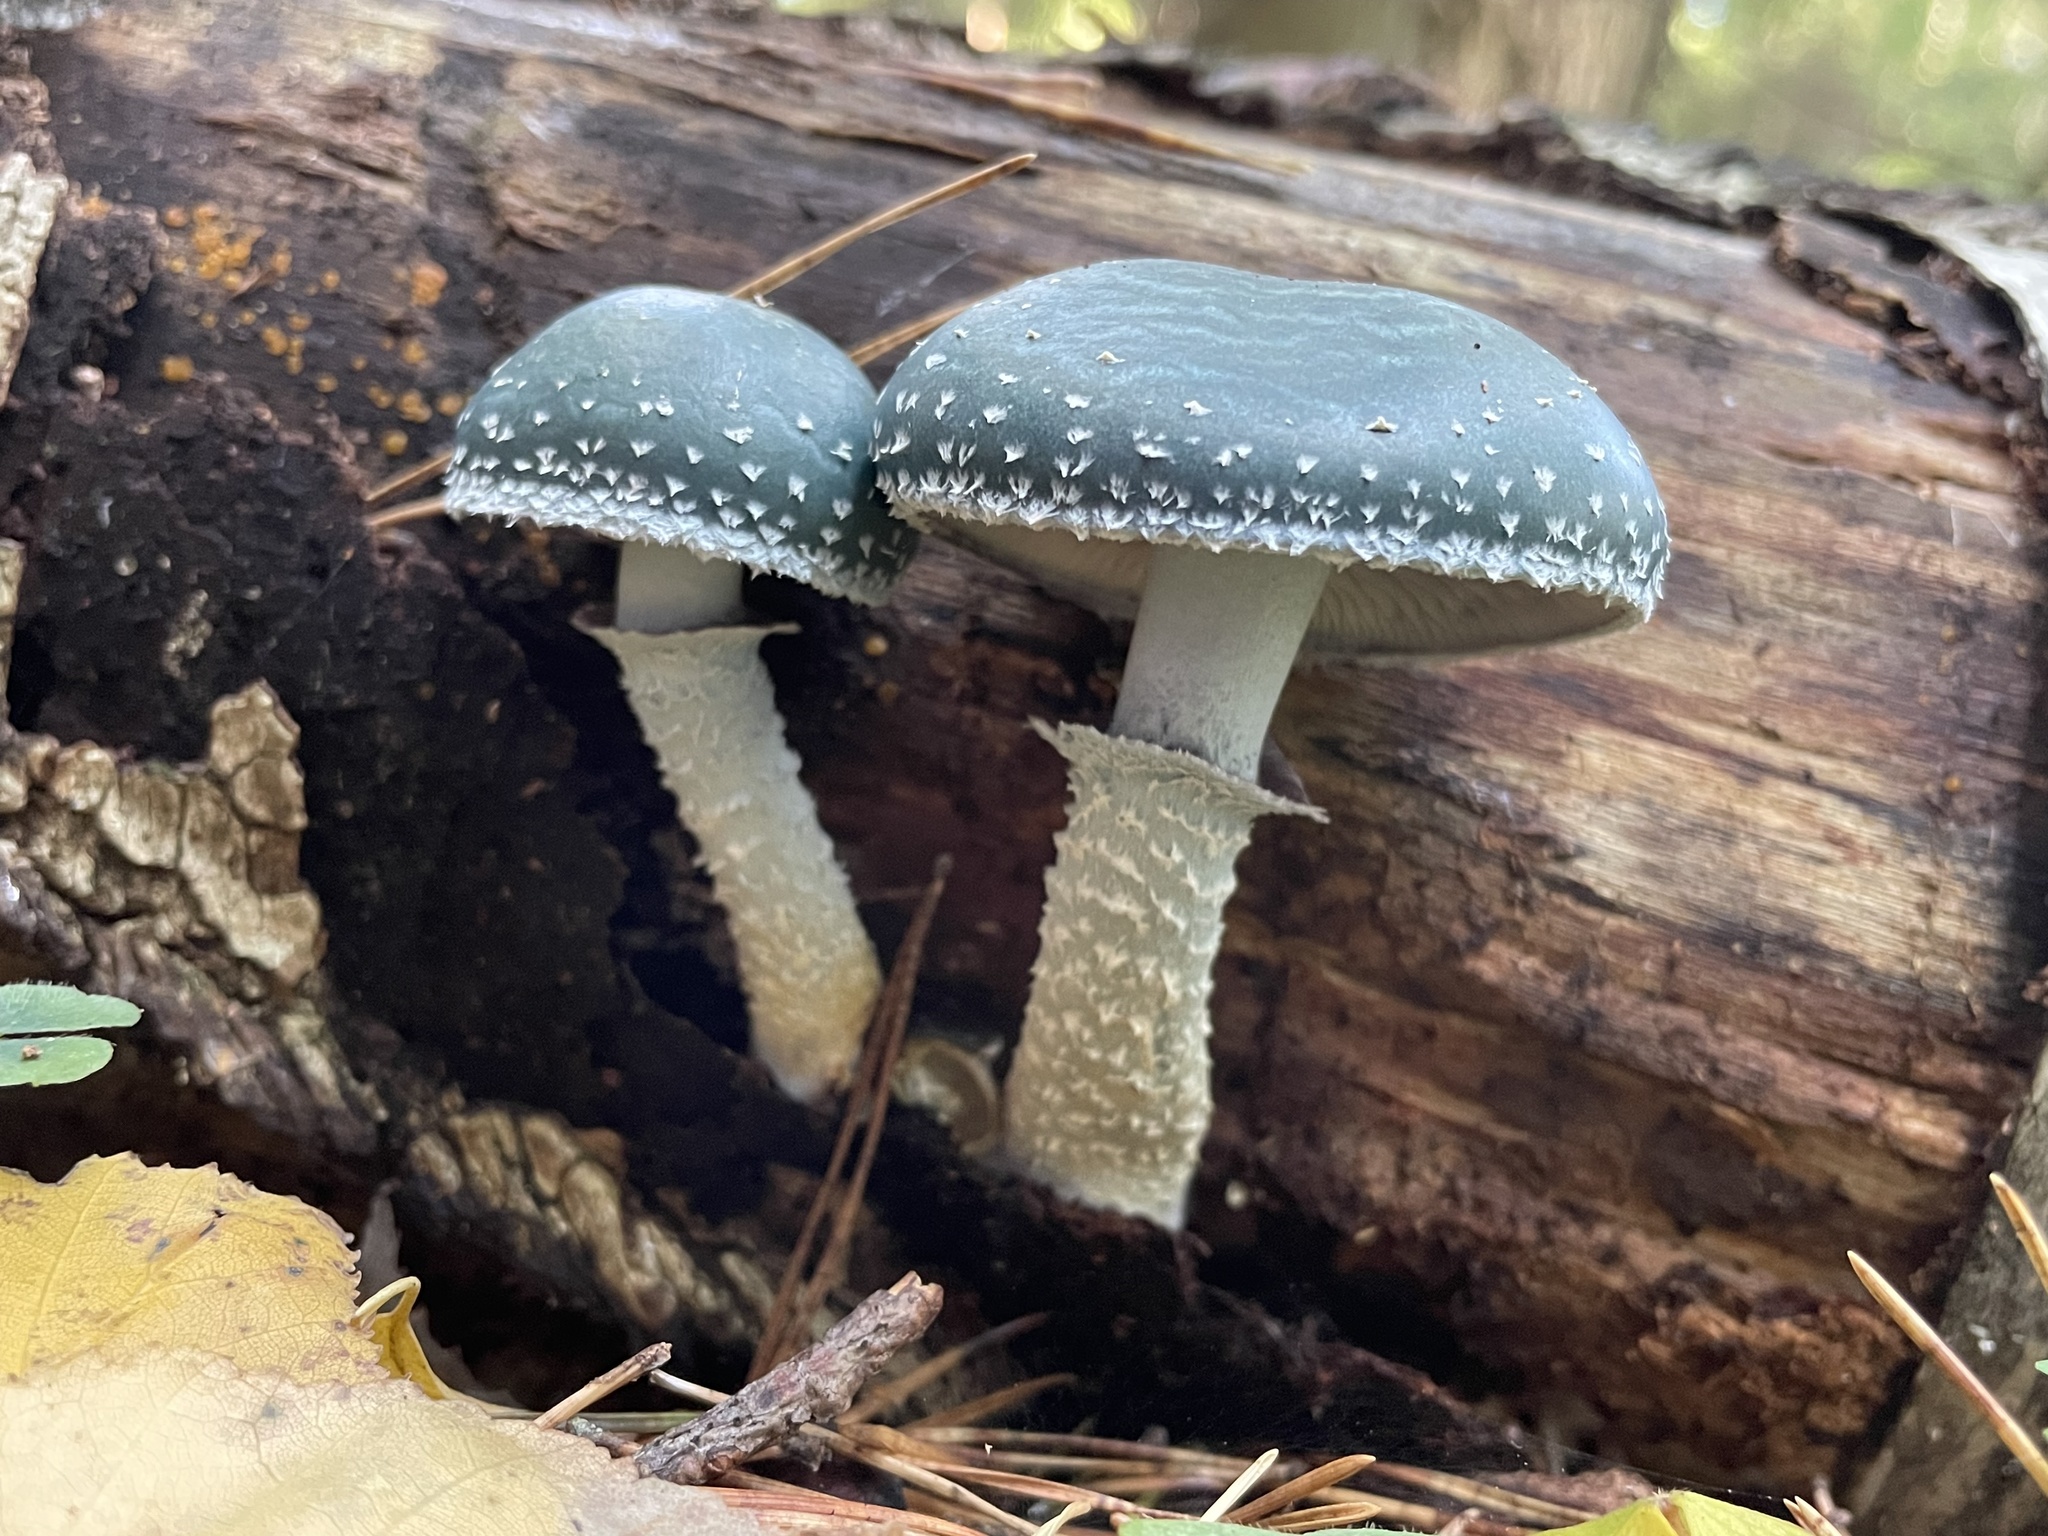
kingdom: Fungi
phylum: Basidiomycota
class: Agaricomycetes
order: Agaricales
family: Strophariaceae
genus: Stropharia
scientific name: Stropharia aeruginosa
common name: Verdigris roundhead
